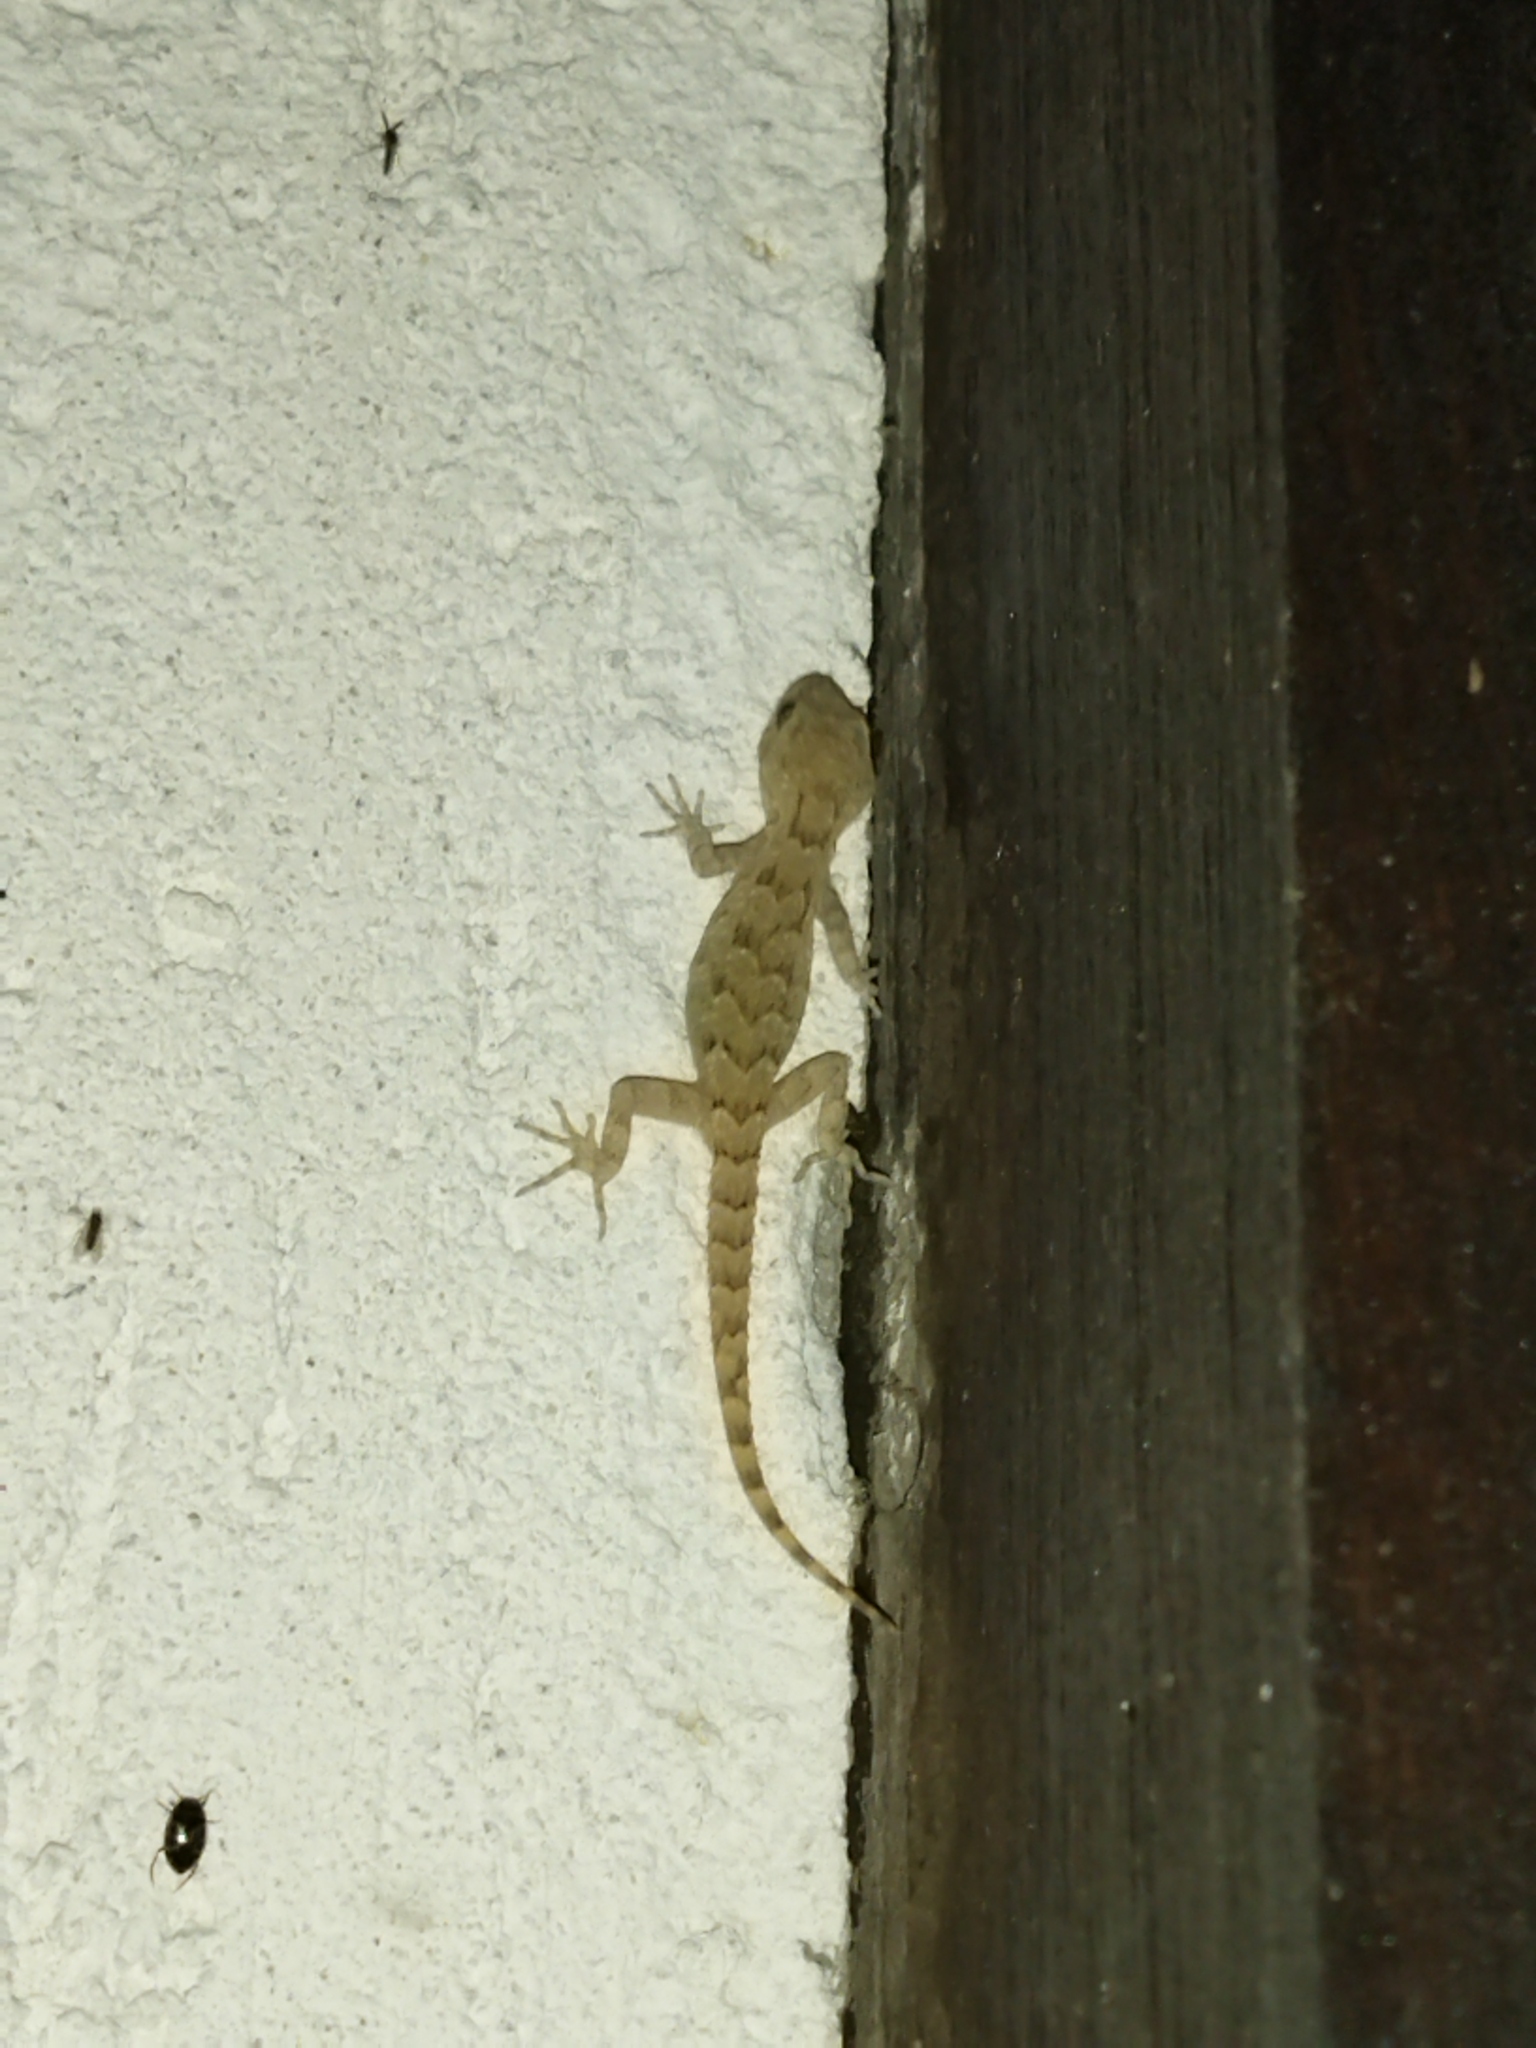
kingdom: Animalia
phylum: Chordata
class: Squamata
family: Gekkonidae
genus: Mediodactylus
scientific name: Mediodactylus kotschyi
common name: Kotschy's gecko
